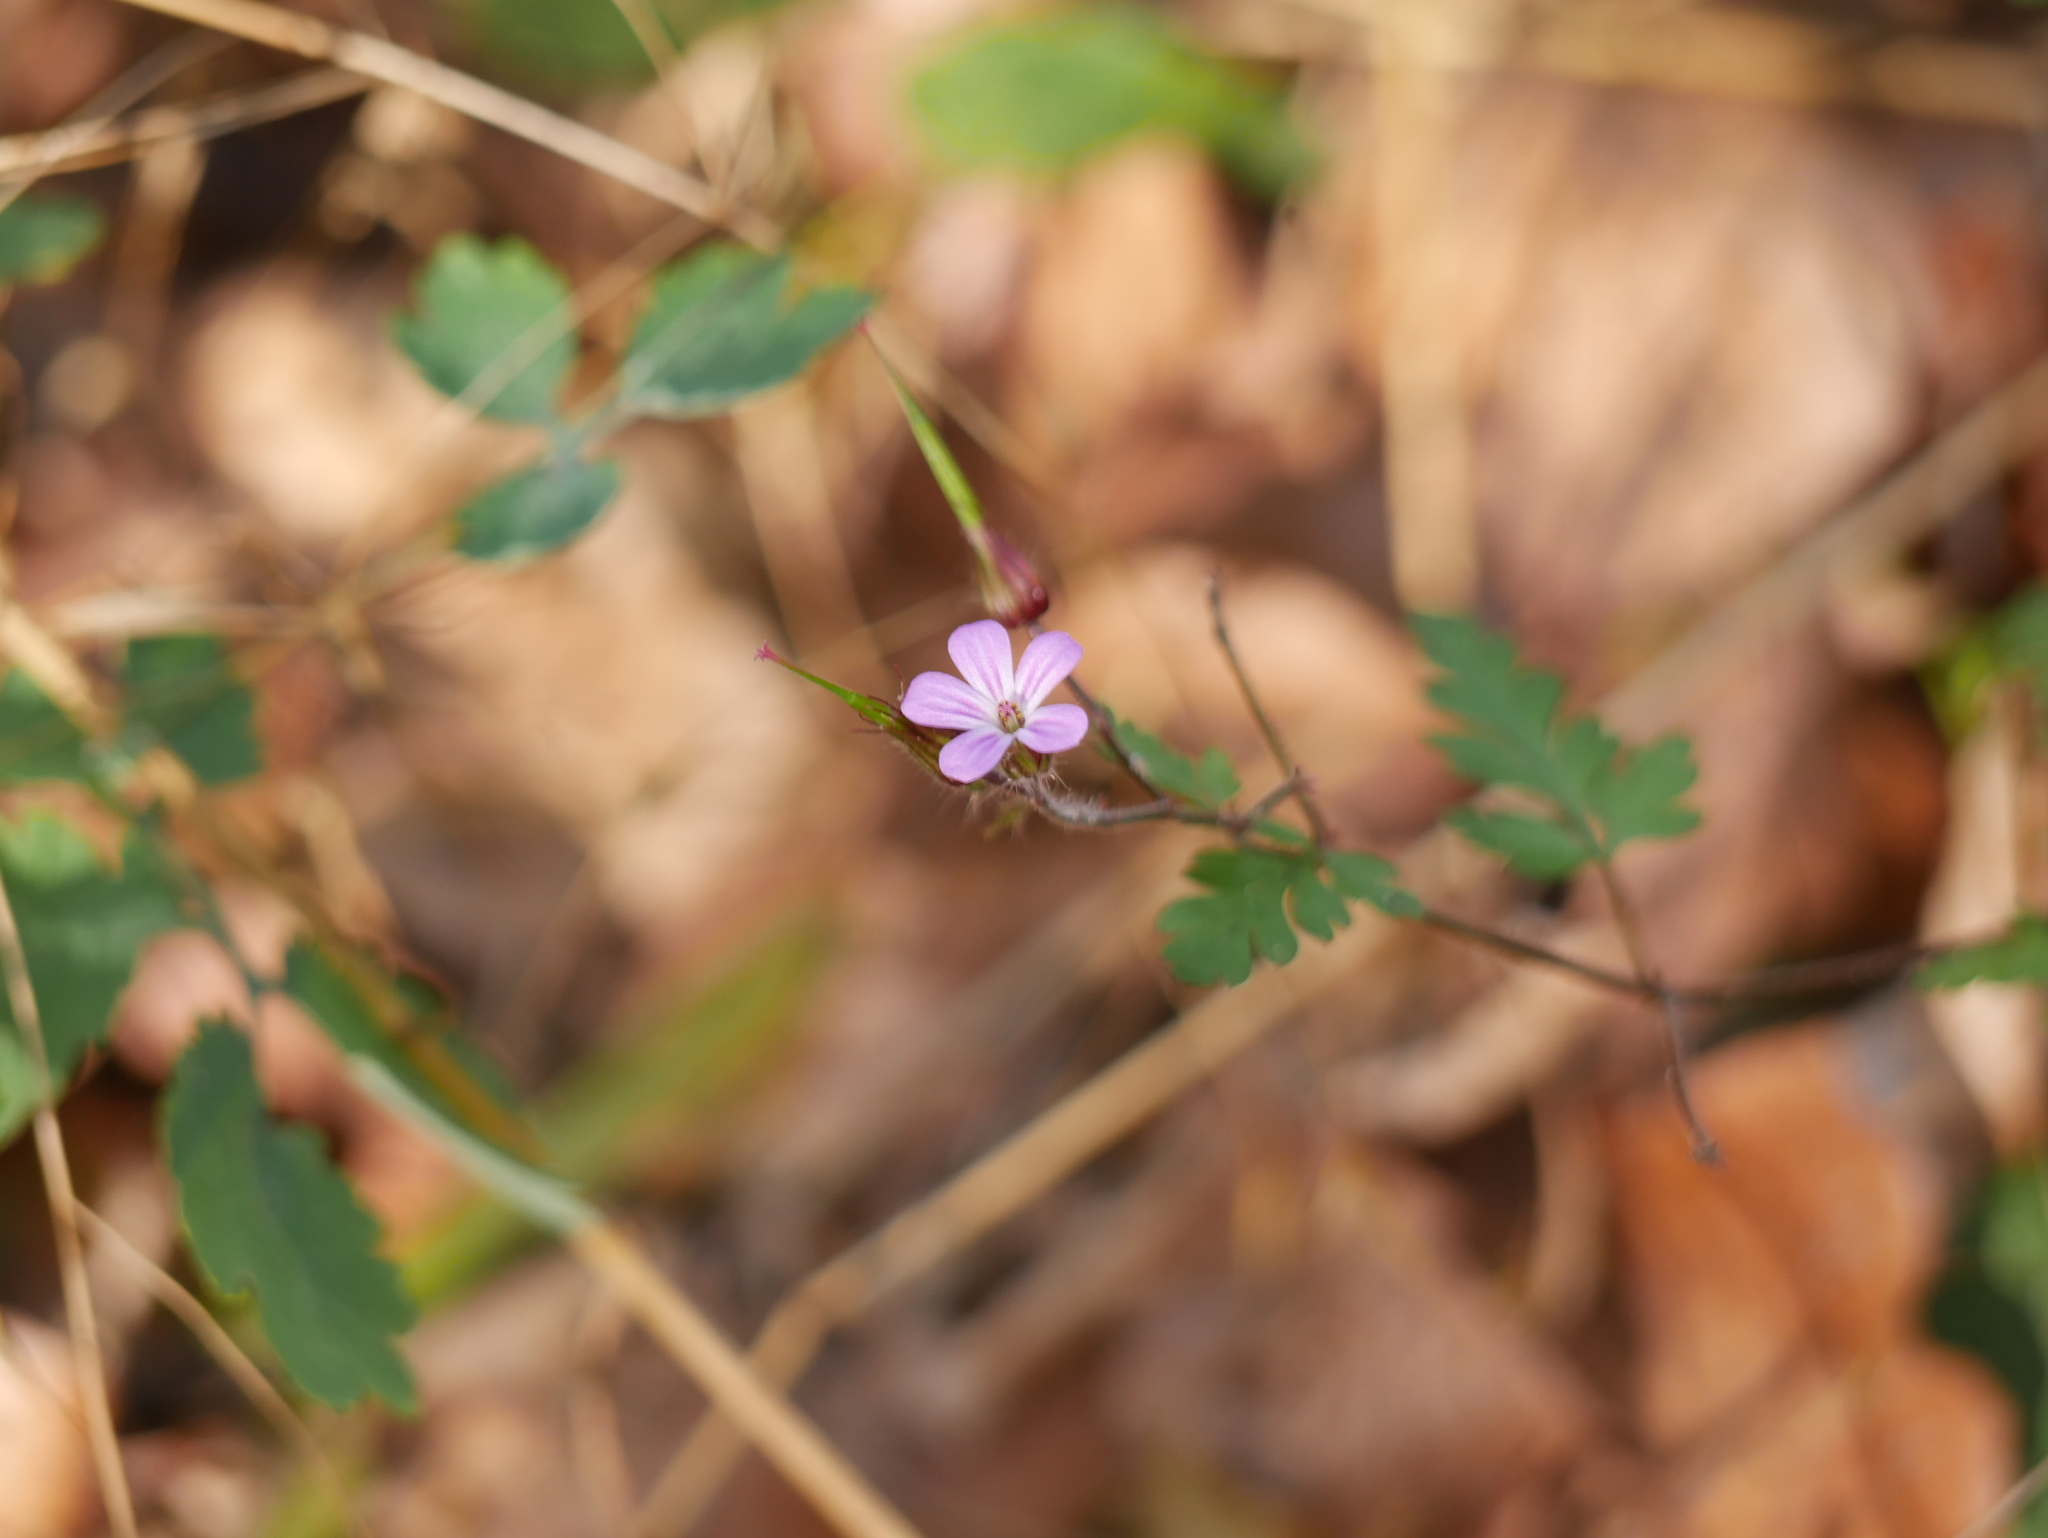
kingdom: Plantae
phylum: Tracheophyta
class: Magnoliopsida
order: Geraniales
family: Geraniaceae
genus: Geranium
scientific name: Geranium robertianum
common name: Herb-robert
